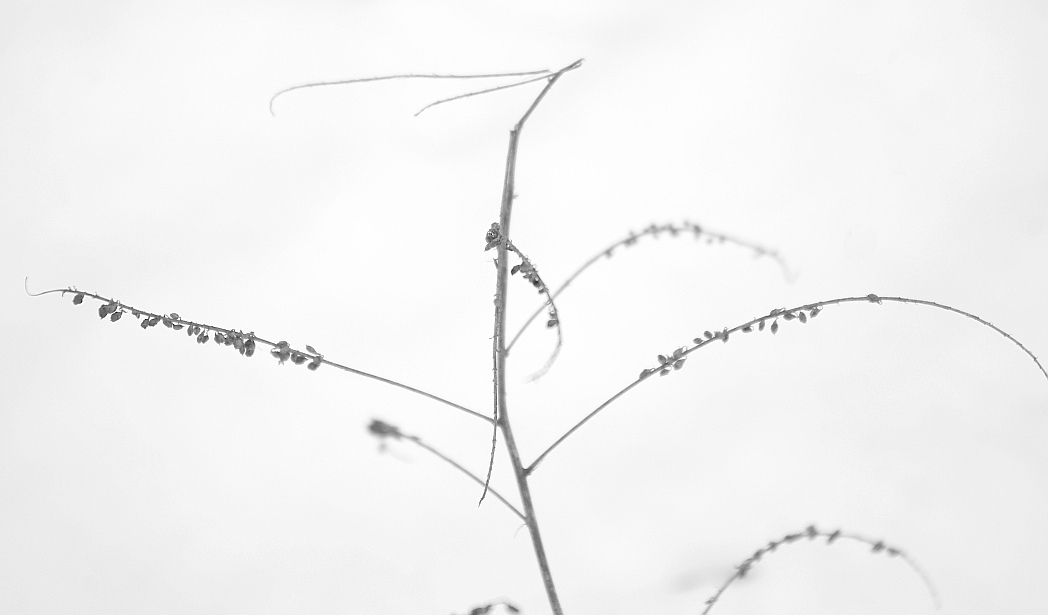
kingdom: Plantae
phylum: Tracheophyta
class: Magnoliopsida
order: Fabales
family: Fabaceae
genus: Melilotus
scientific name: Melilotus
